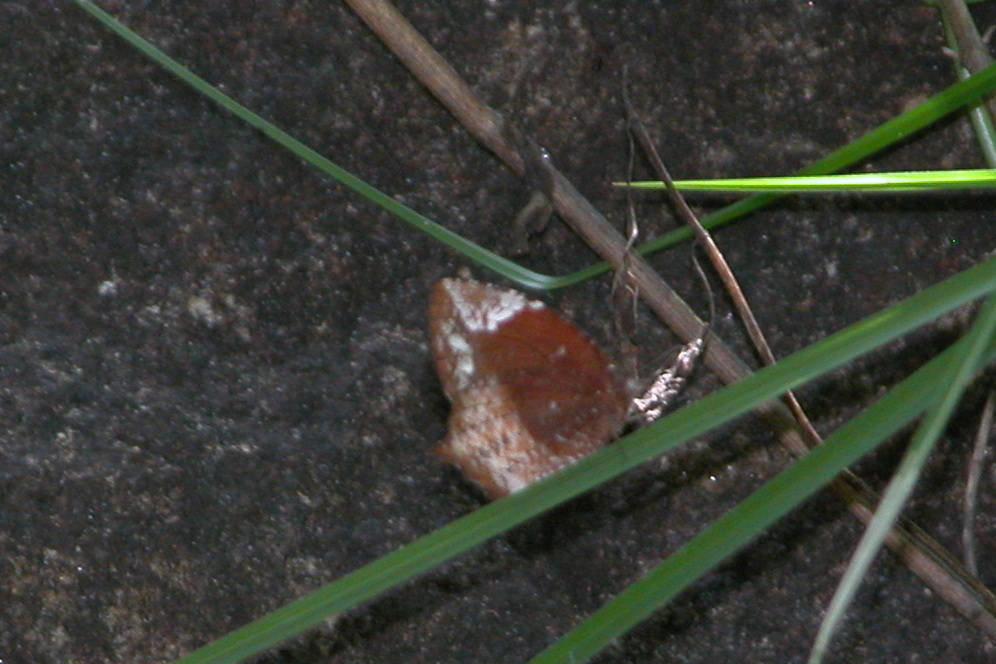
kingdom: Animalia
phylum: Arthropoda
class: Insecta
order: Lepidoptera
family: Nymphalidae
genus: Elymnias
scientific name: Elymnias caudata
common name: Tailed palmfly
